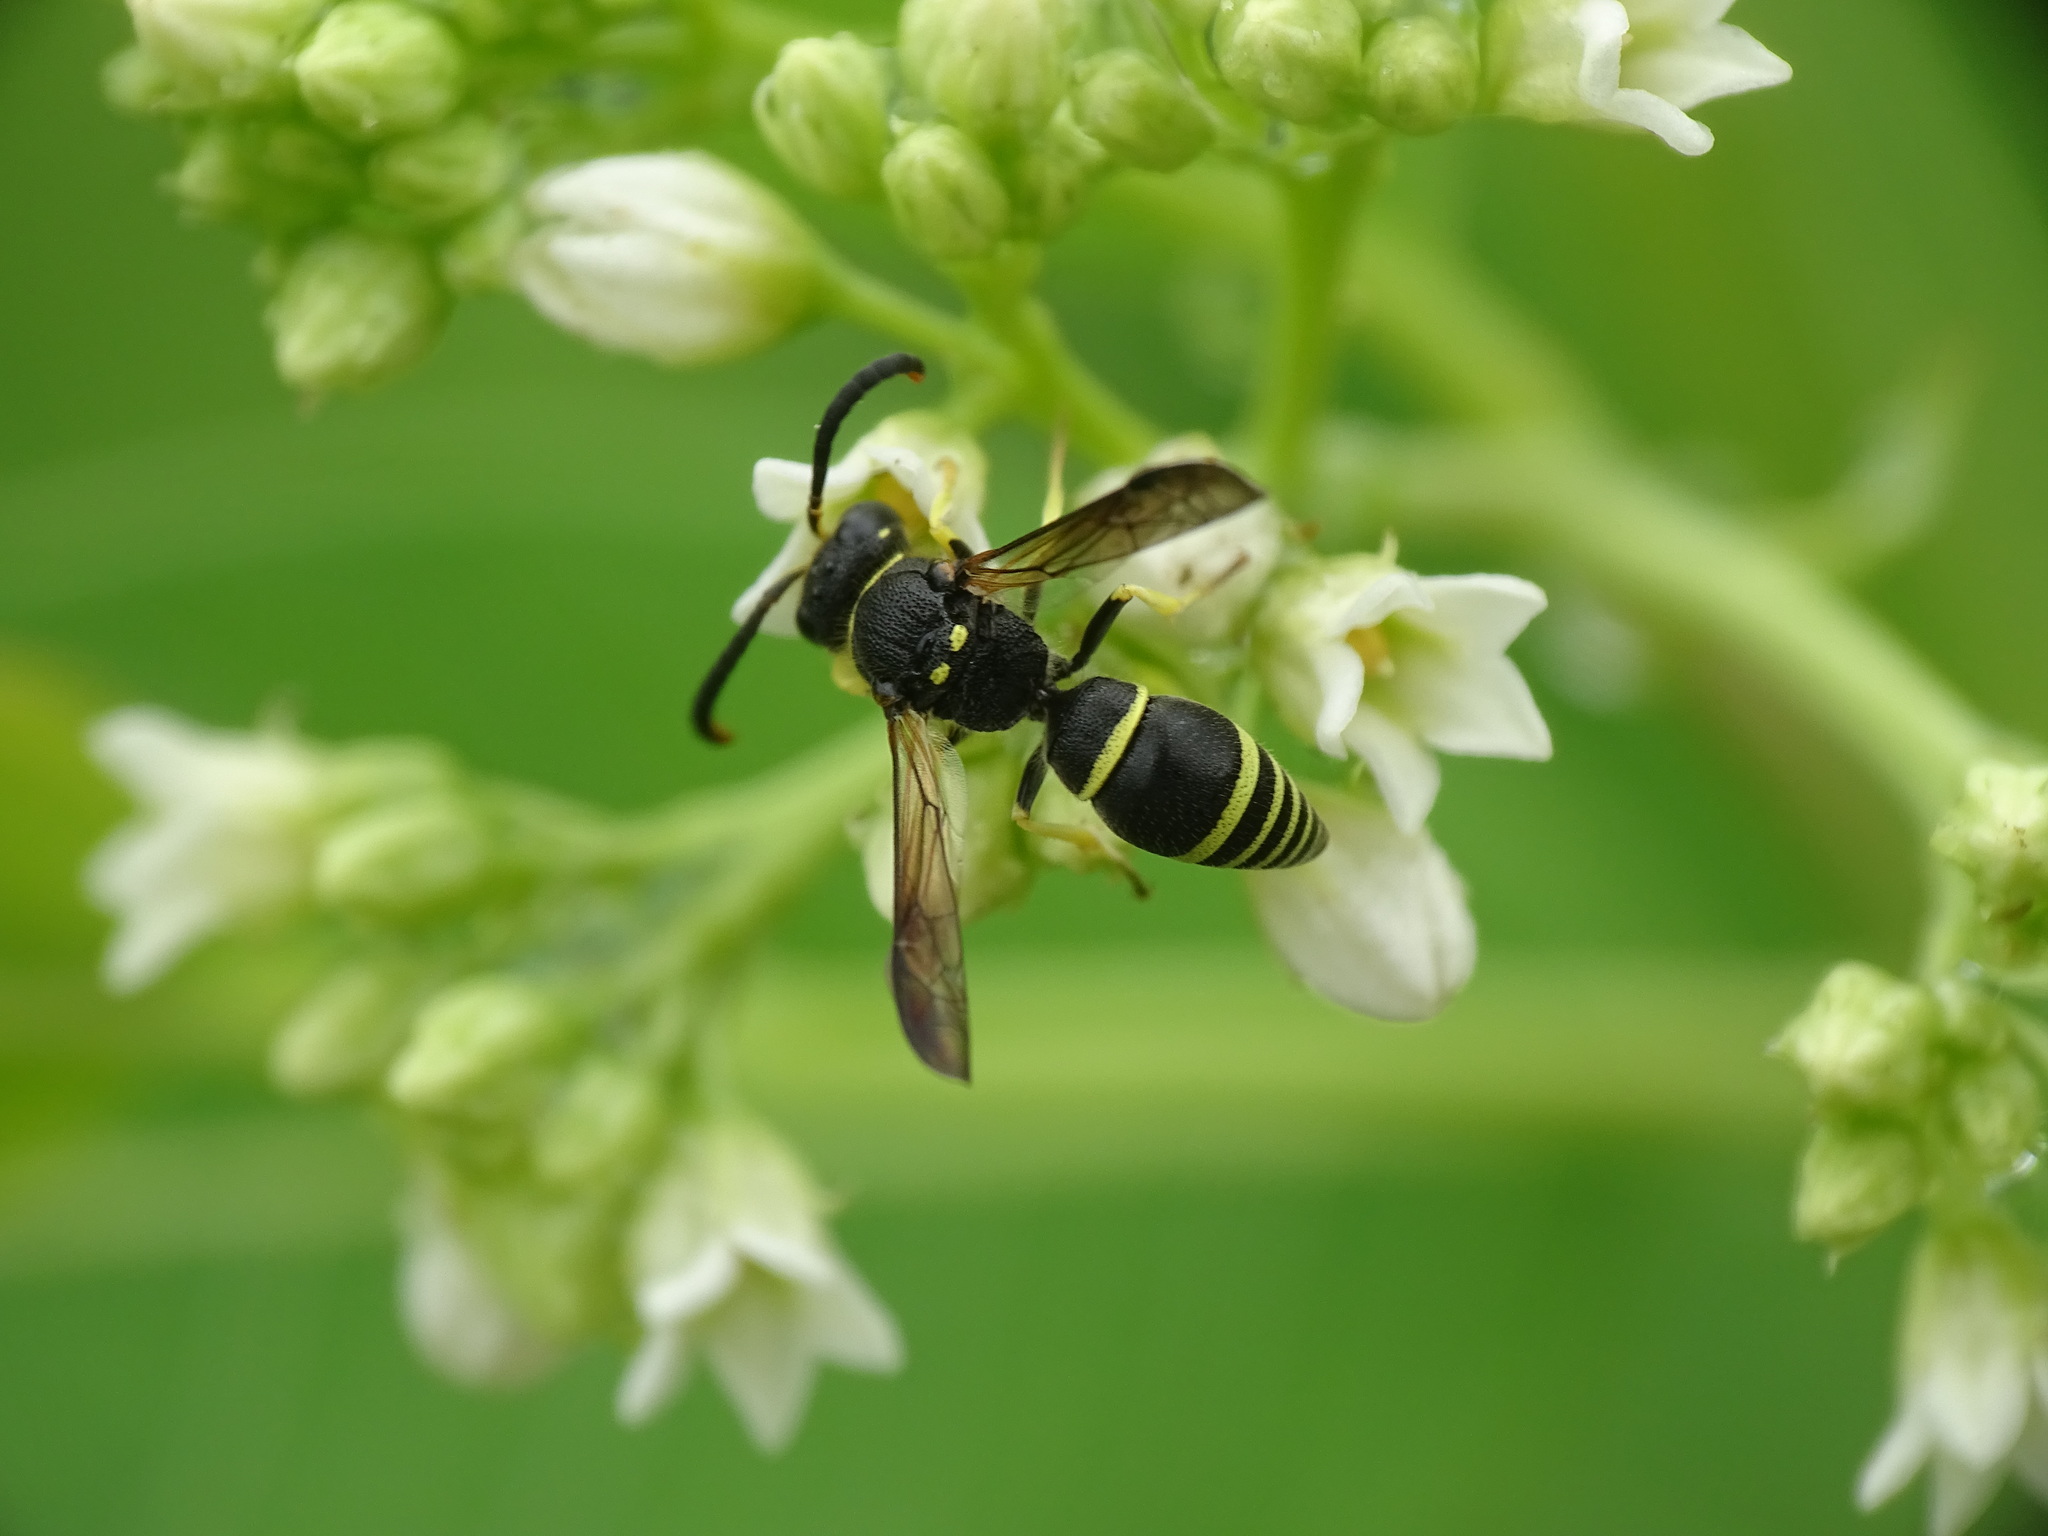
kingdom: Animalia
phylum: Arthropoda
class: Insecta
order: Hymenoptera
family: Vespidae
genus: Ancistrocerus
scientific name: Ancistrocerus
